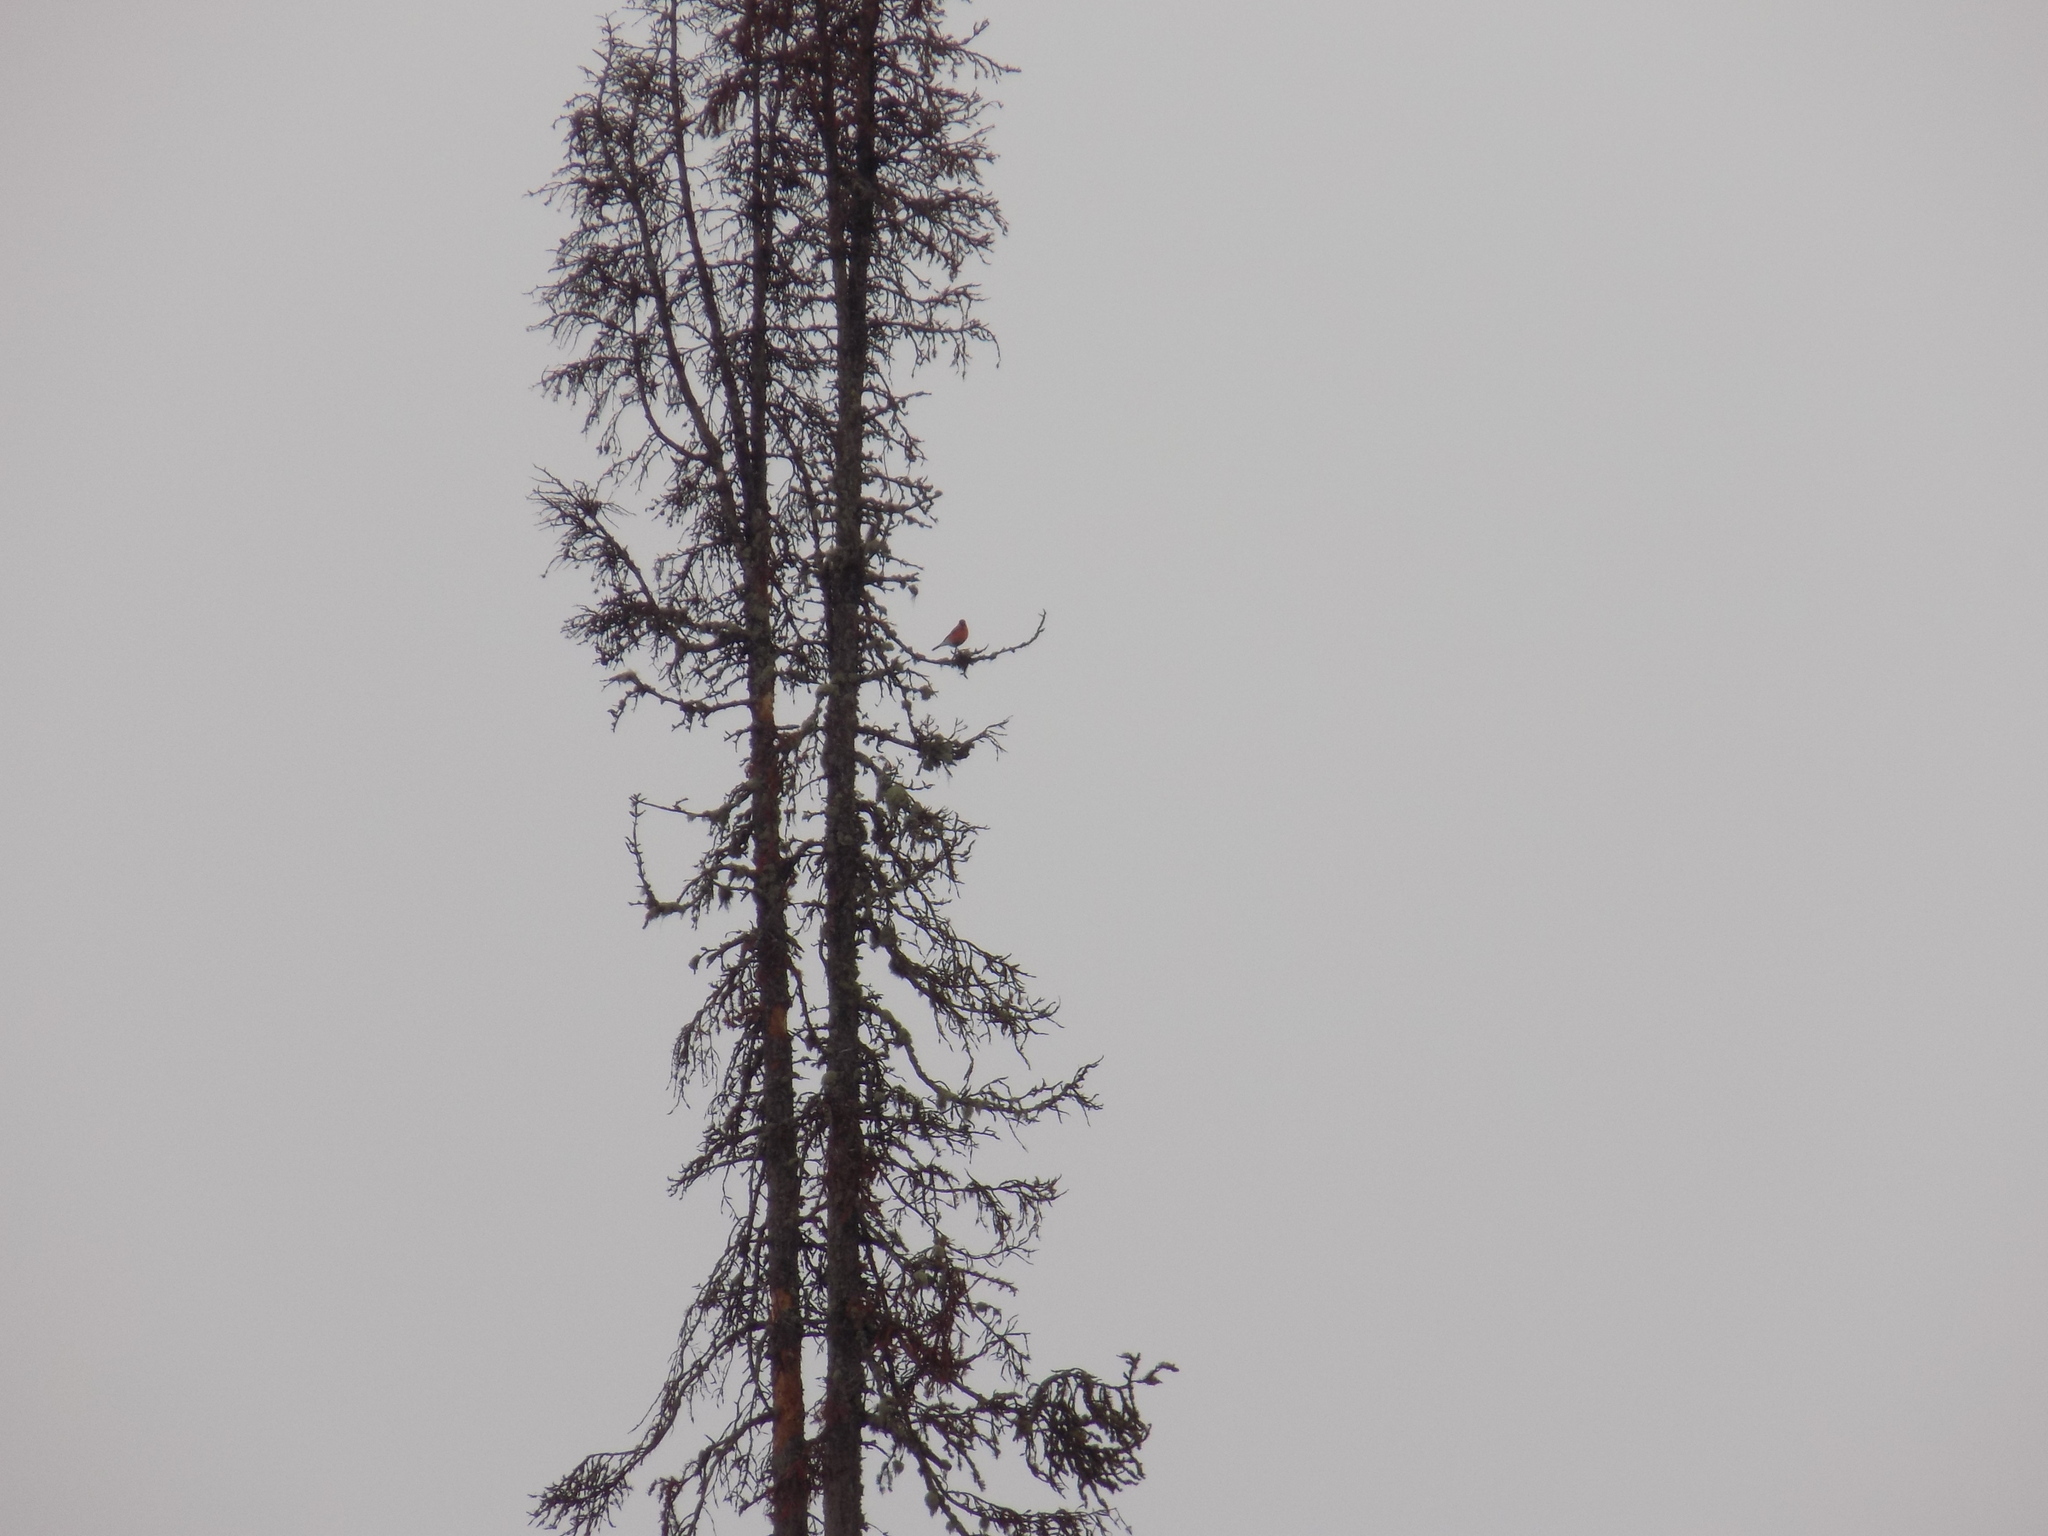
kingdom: Animalia
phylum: Chordata
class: Aves
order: Passeriformes
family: Fringillidae
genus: Pyrrhula
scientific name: Pyrrhula pyrrhula
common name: Eurasian bullfinch
